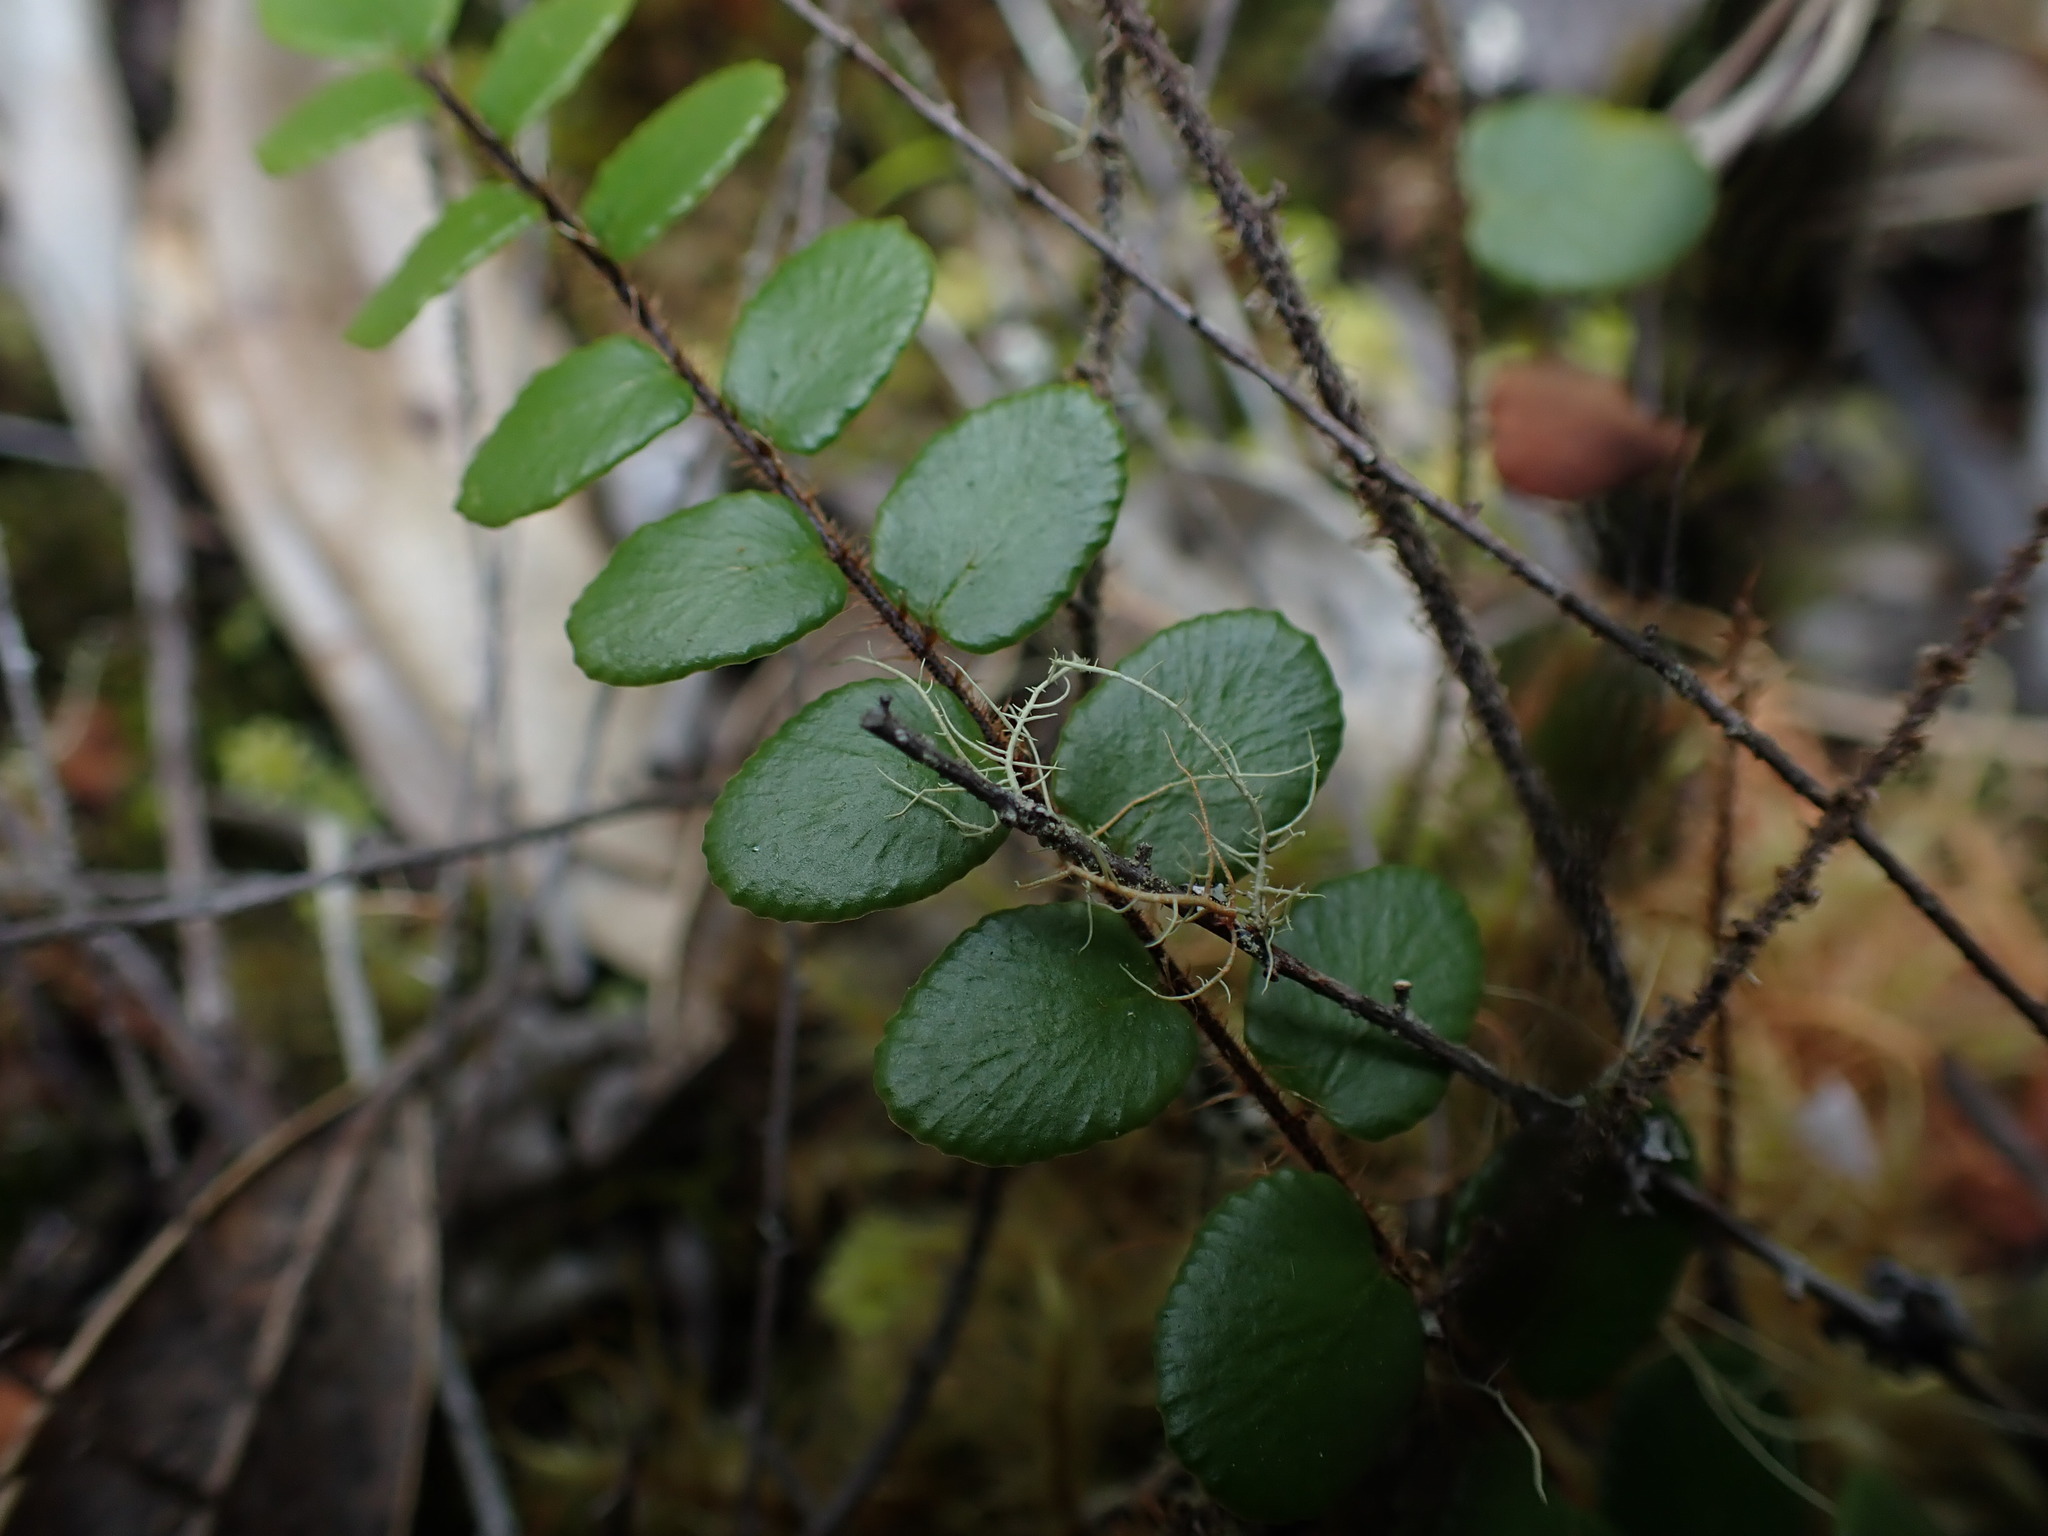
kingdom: Plantae
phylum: Tracheophyta
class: Polypodiopsida
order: Polypodiales
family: Pteridaceae
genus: Pellaea
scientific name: Pellaea rotundifolia
